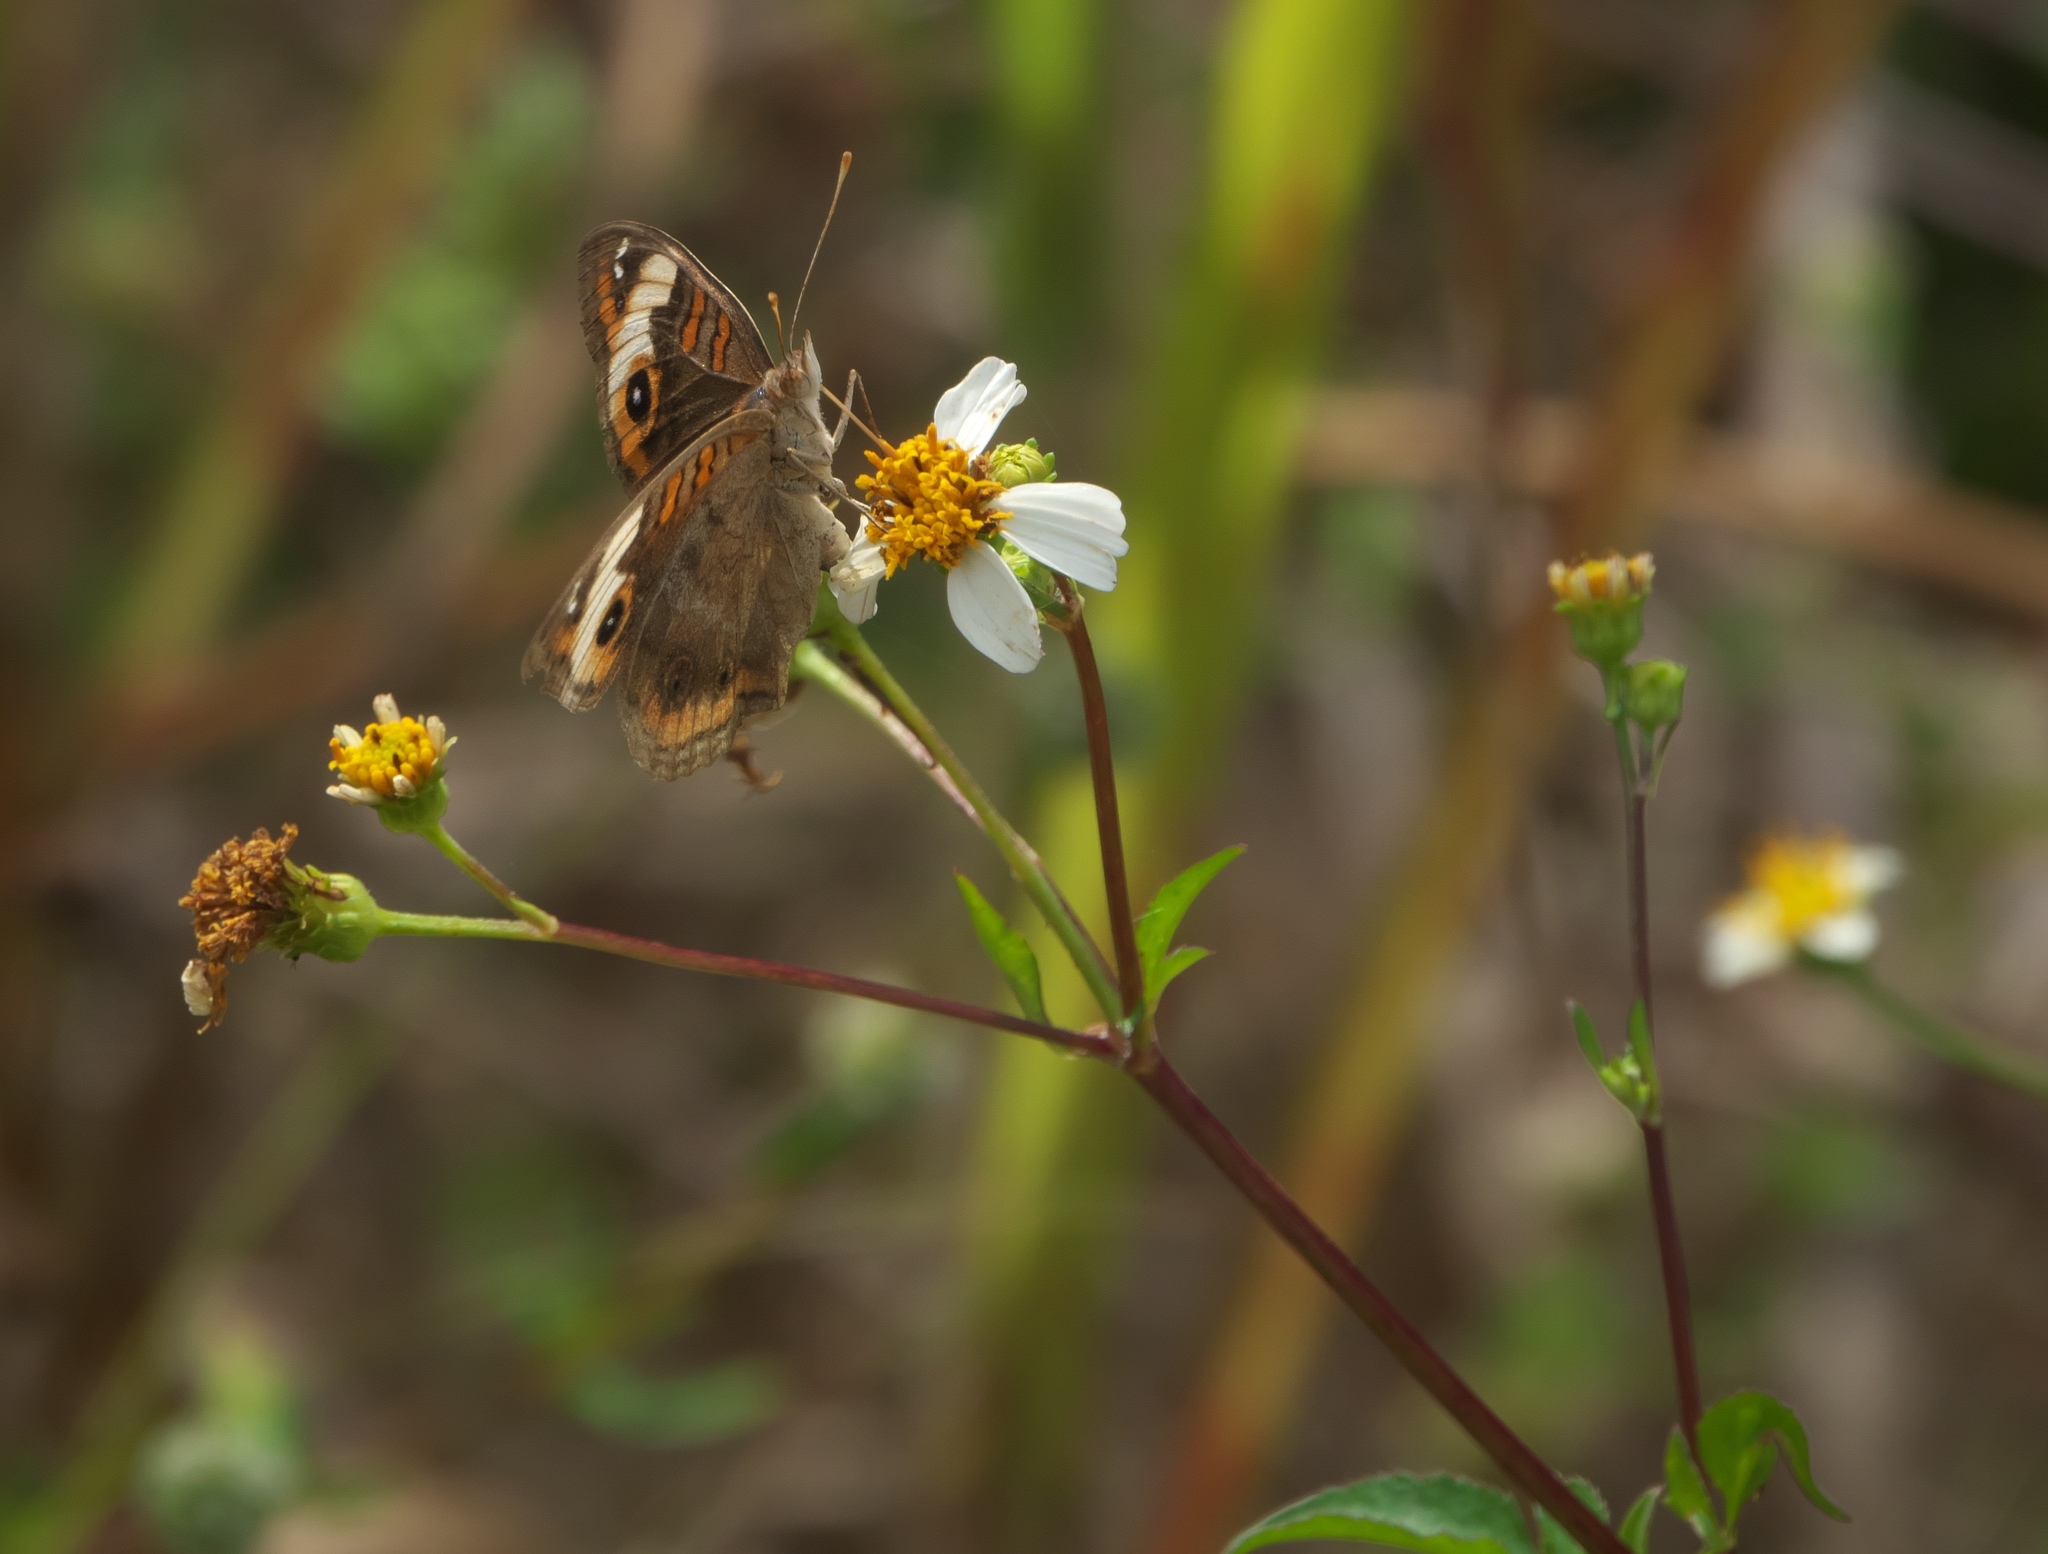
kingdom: Plantae
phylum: Tracheophyta
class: Magnoliopsida
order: Asterales
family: Asteraceae
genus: Bidens
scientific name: Bidens alba
